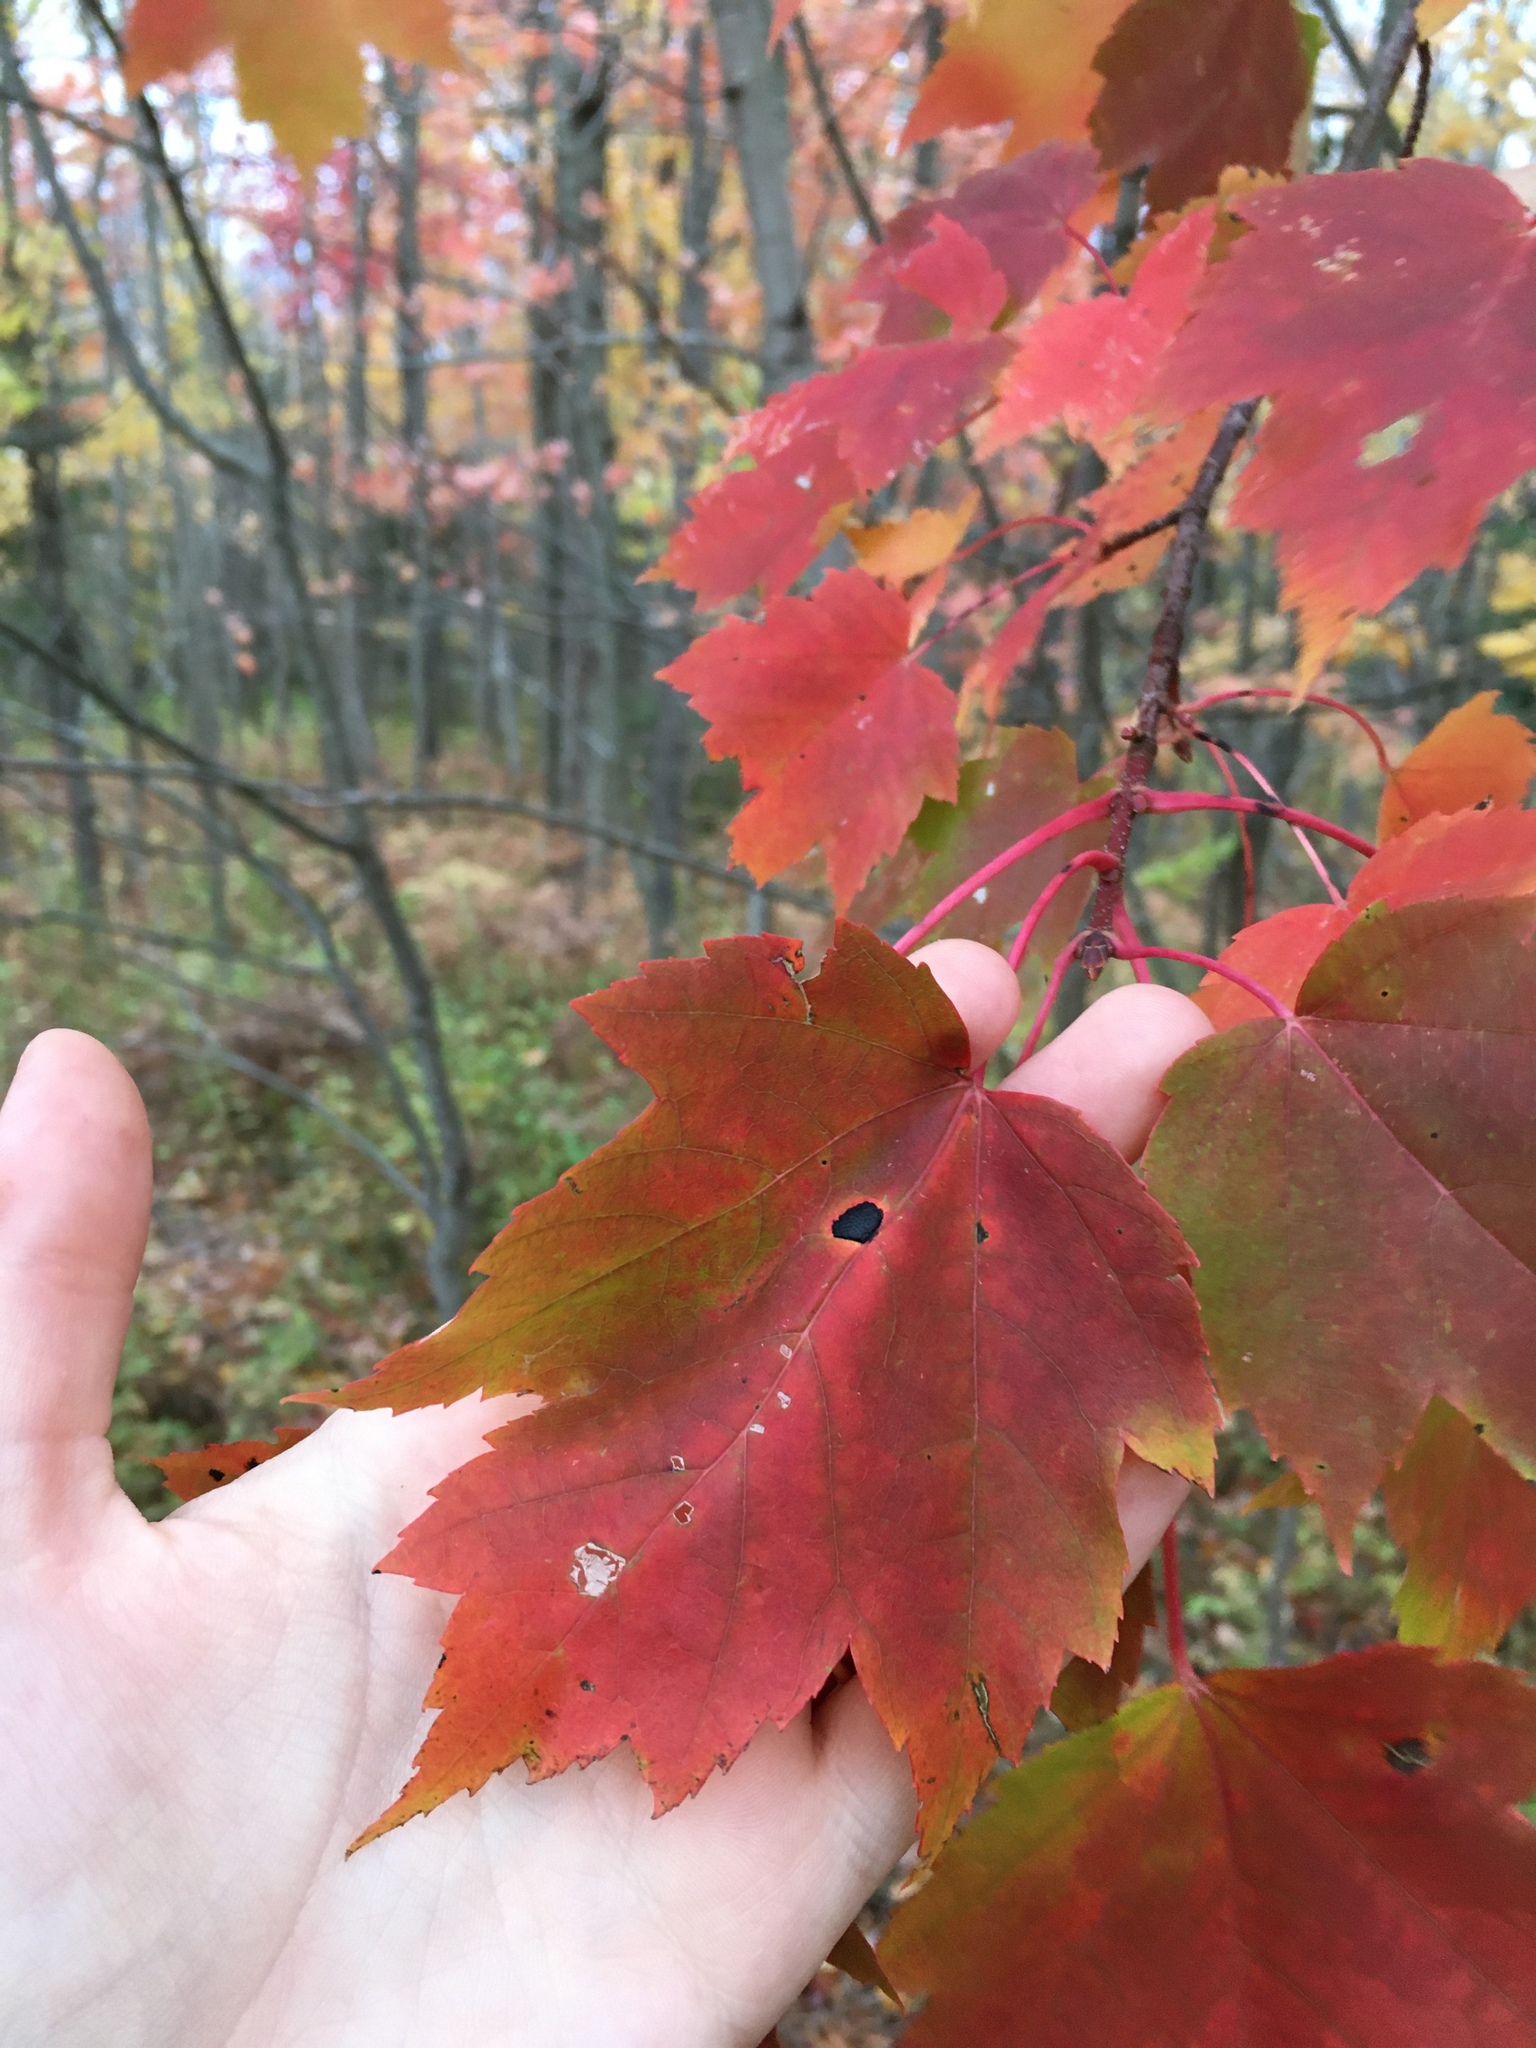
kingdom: Plantae
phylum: Tracheophyta
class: Magnoliopsida
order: Sapindales
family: Sapindaceae
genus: Acer
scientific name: Acer rubrum
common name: Red maple
